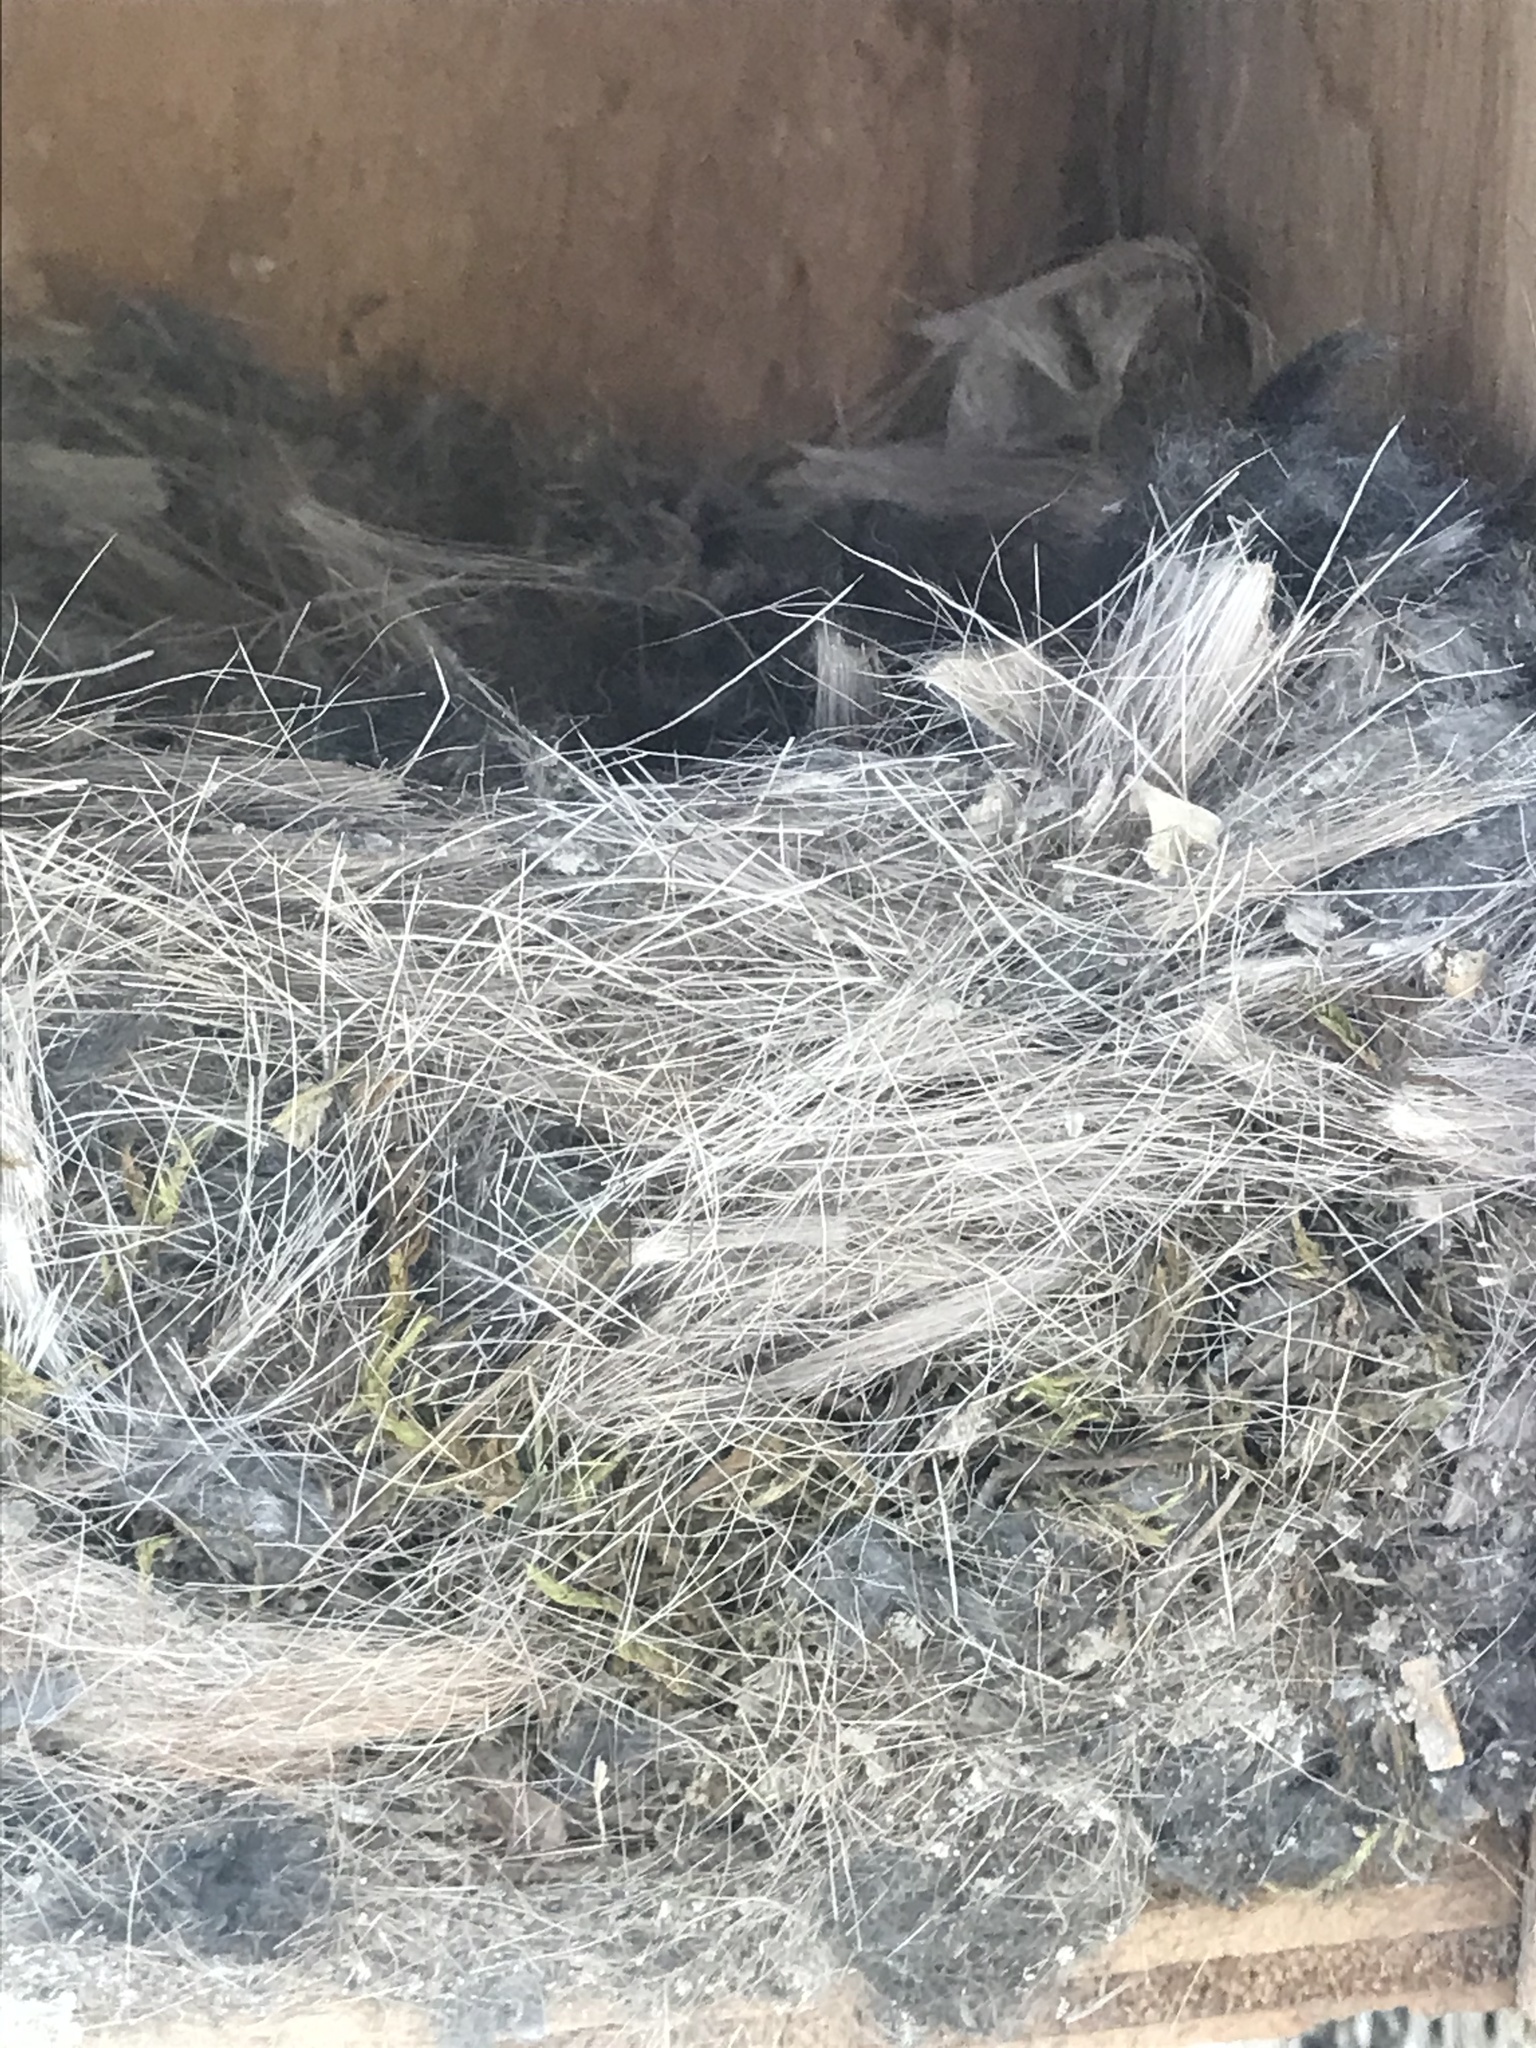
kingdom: Animalia
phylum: Chordata
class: Aves
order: Passeriformes
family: Paridae
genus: Poecile
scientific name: Poecile gambeli
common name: Mountain chickadee
